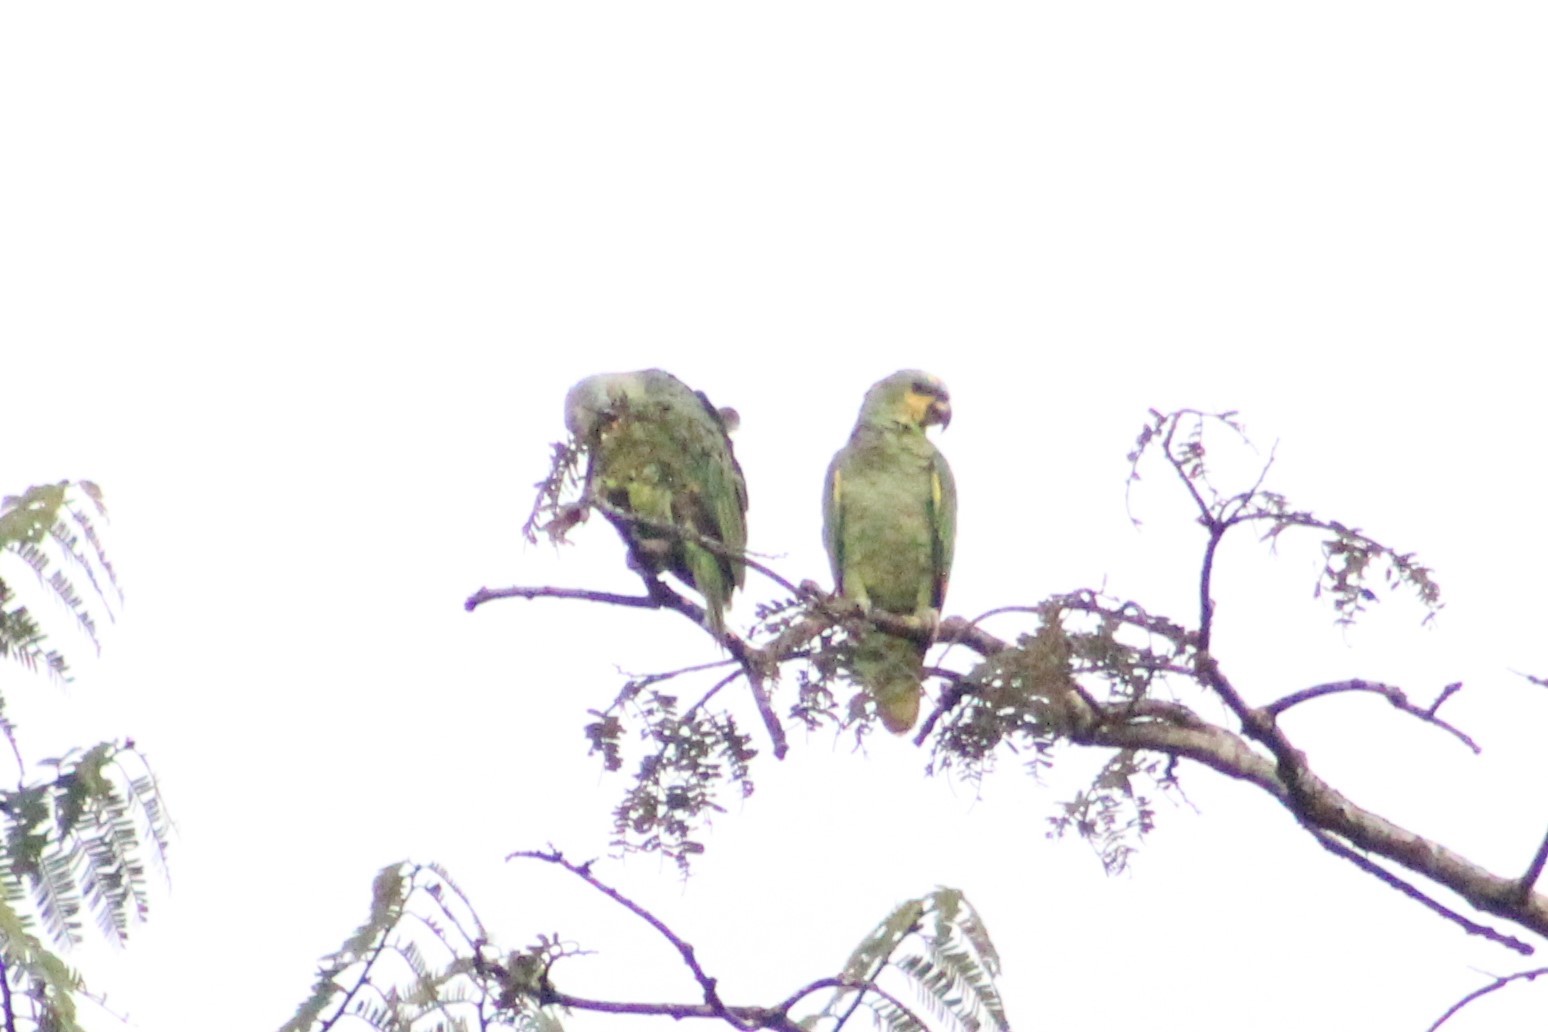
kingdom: Animalia
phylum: Chordata
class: Aves
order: Psittaciformes
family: Psittacidae
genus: Amazona
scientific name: Amazona amazonica
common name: Orange-winged amazon
